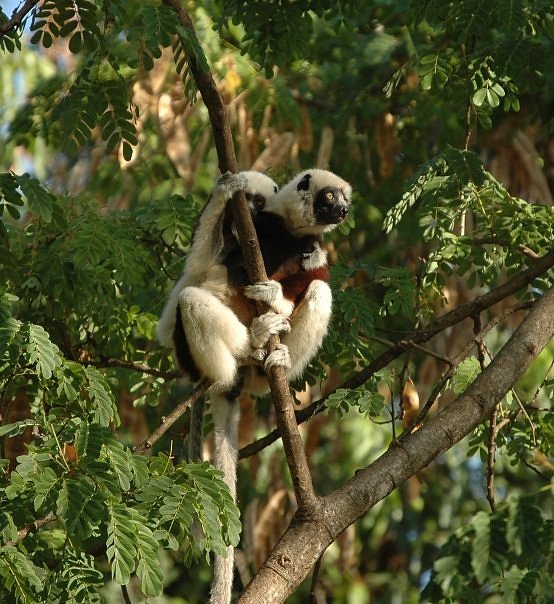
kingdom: Animalia
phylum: Chordata
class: Mammalia
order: Primates
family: Indriidae
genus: Propithecus
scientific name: Propithecus coquereli
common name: Coquerel's sifaka
